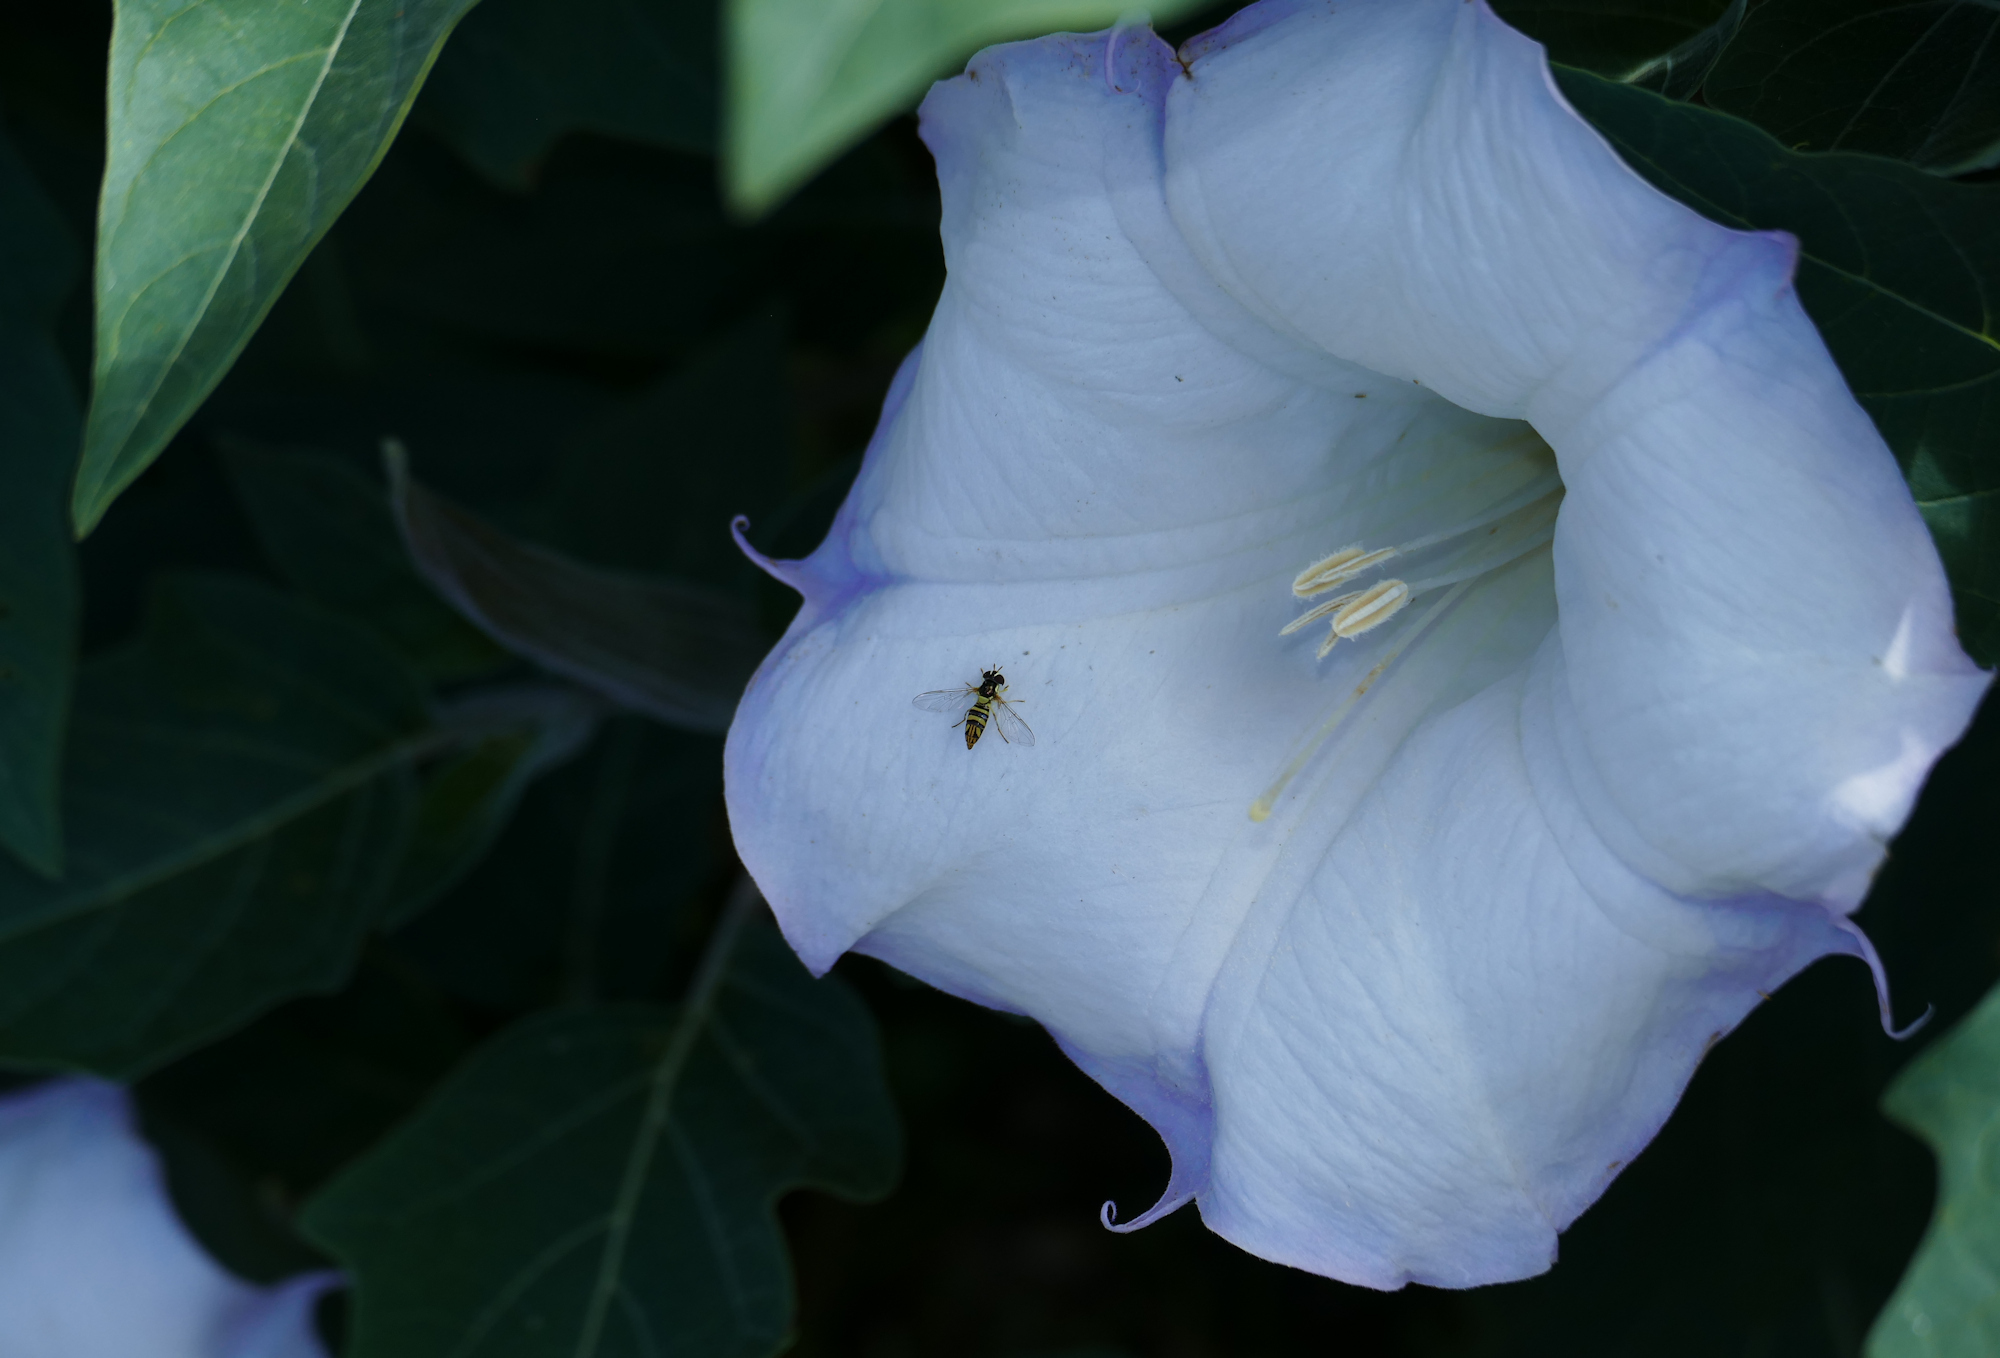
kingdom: Animalia
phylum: Arthropoda
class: Insecta
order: Diptera
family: Syrphidae
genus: Allograpta
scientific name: Allograpta obliqua
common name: Common oblique syrphid
